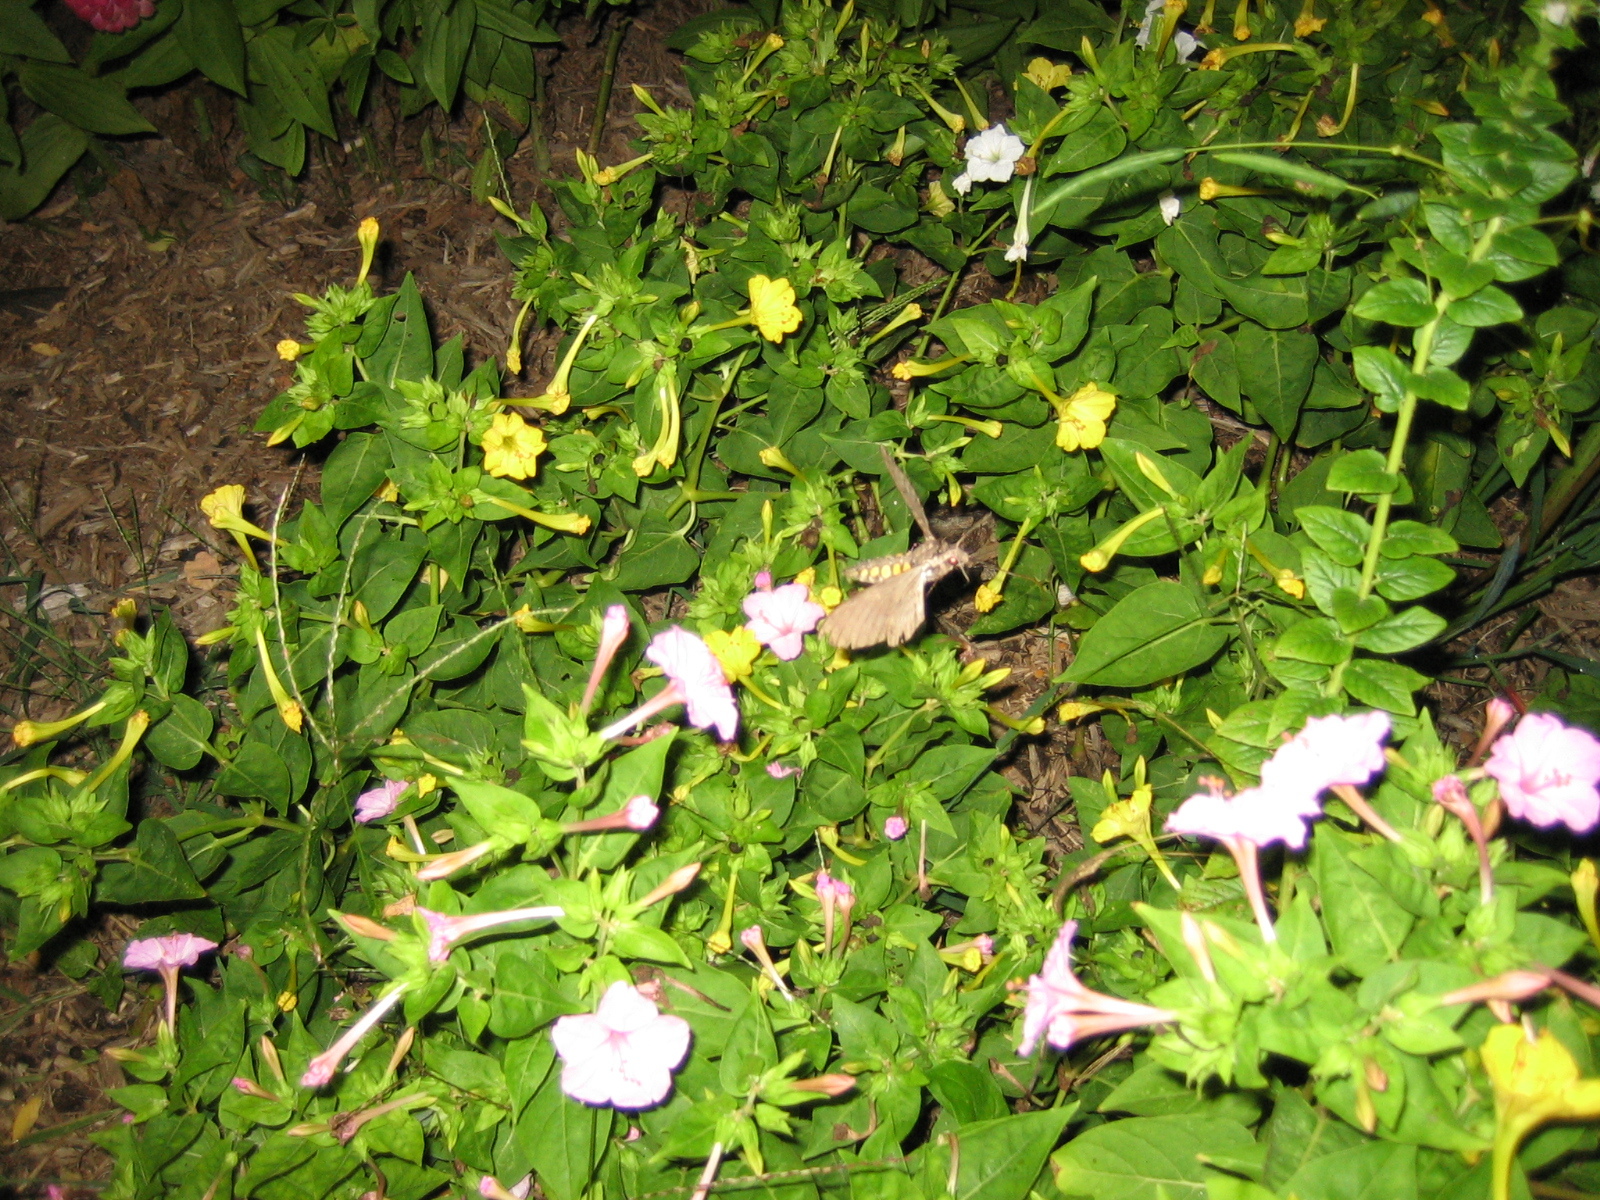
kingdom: Animalia
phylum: Arthropoda
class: Insecta
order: Lepidoptera
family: Sphingidae
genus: Manduca
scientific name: Manduca sexta
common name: Carolina sphinx
